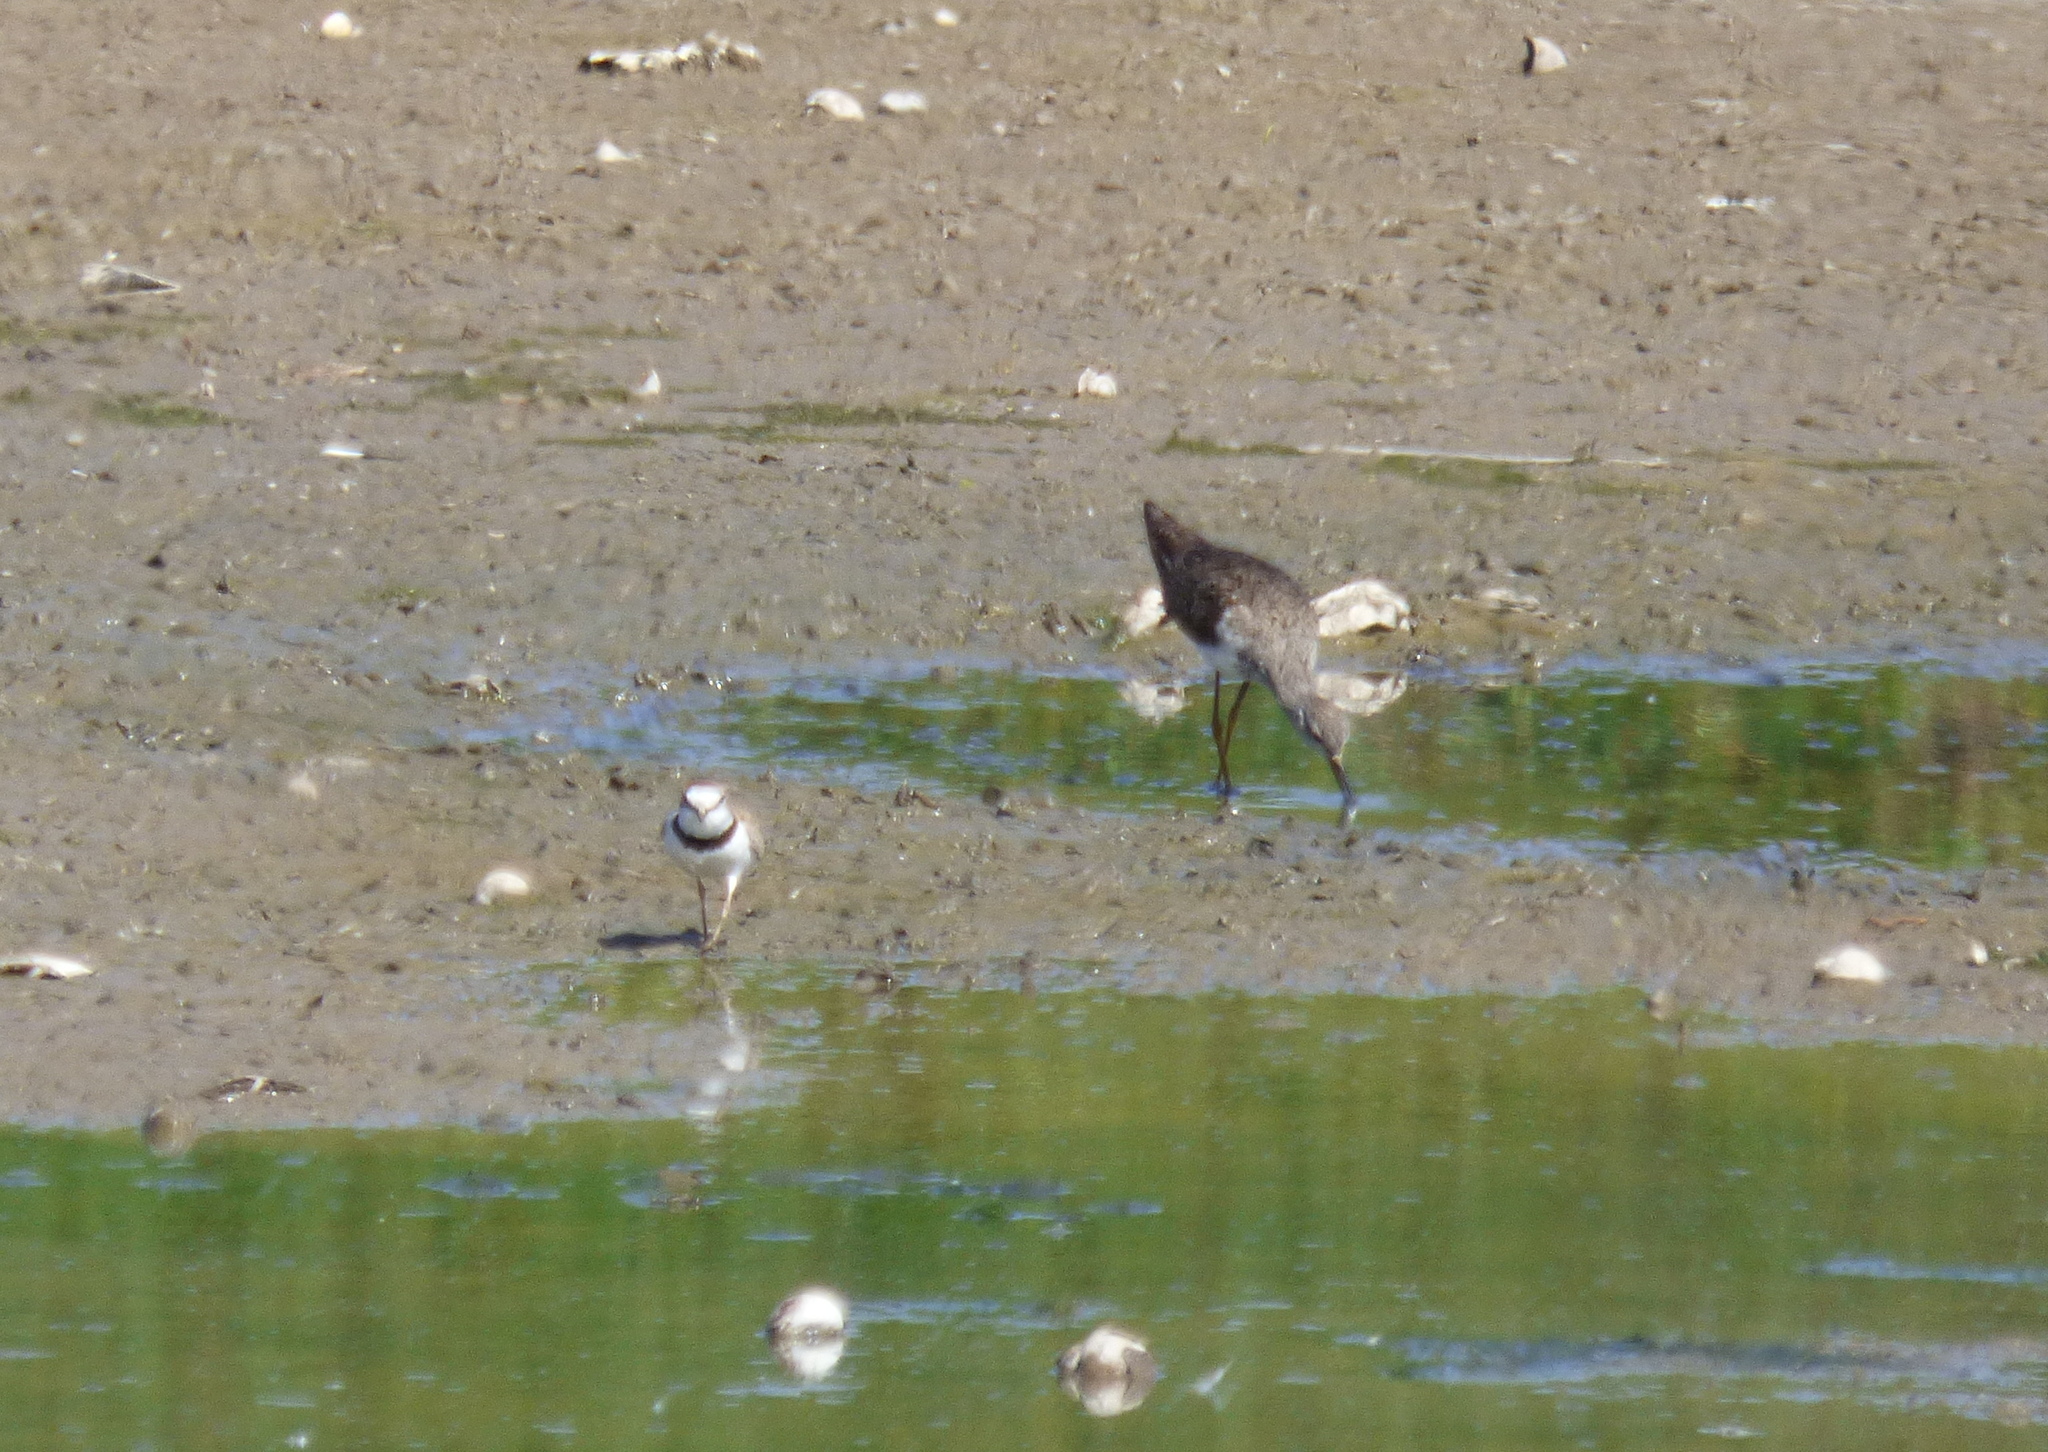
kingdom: Animalia
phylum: Chordata
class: Aves
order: Charadriiformes
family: Charadriidae
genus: Anarhynchus
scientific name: Anarhynchus
